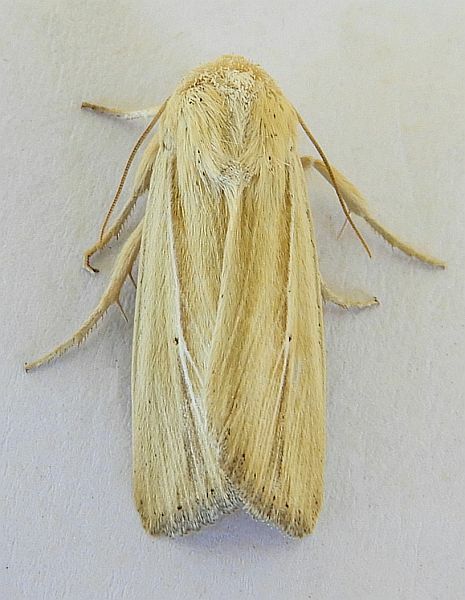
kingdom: Animalia
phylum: Arthropoda
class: Insecta
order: Lepidoptera
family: Noctuidae
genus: Leucania
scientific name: Leucania stolata
